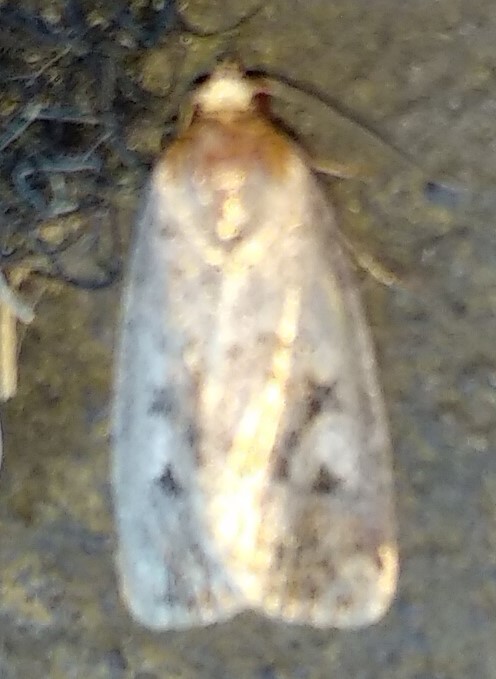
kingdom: Animalia
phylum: Arthropoda
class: Insecta
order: Lepidoptera
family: Noctuidae
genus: Elaphria
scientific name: Elaphria alapallida
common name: Pale-winged midget
